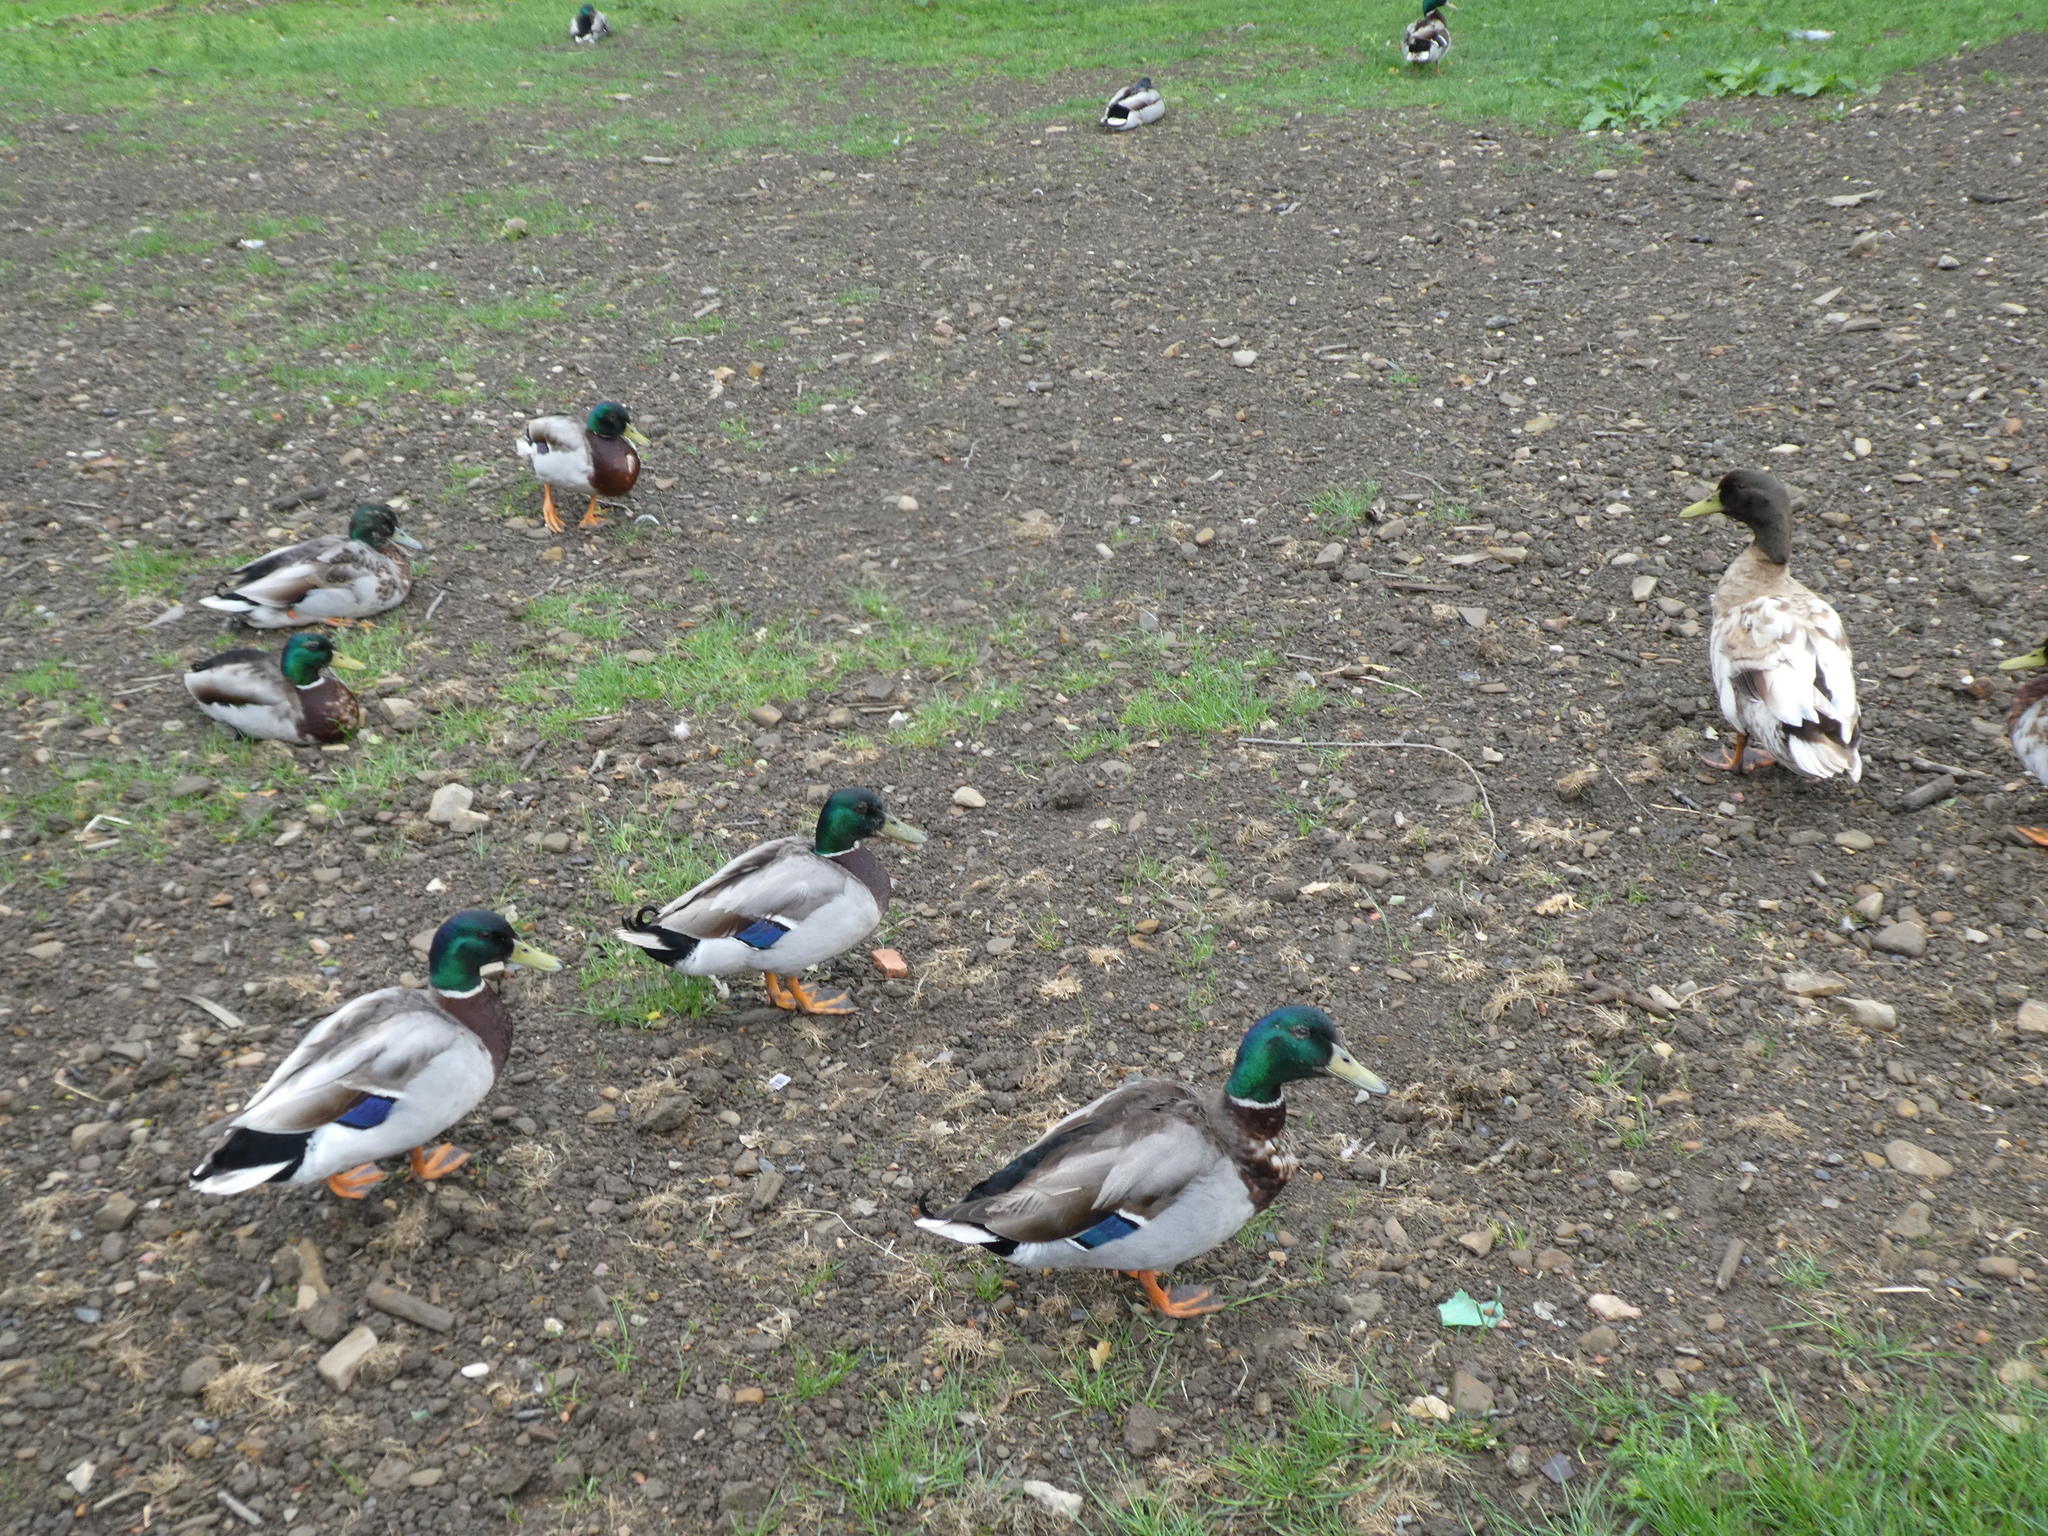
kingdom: Animalia
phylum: Chordata
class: Aves
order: Anseriformes
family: Anatidae
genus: Anas
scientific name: Anas platyrhynchos
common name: Mallard
